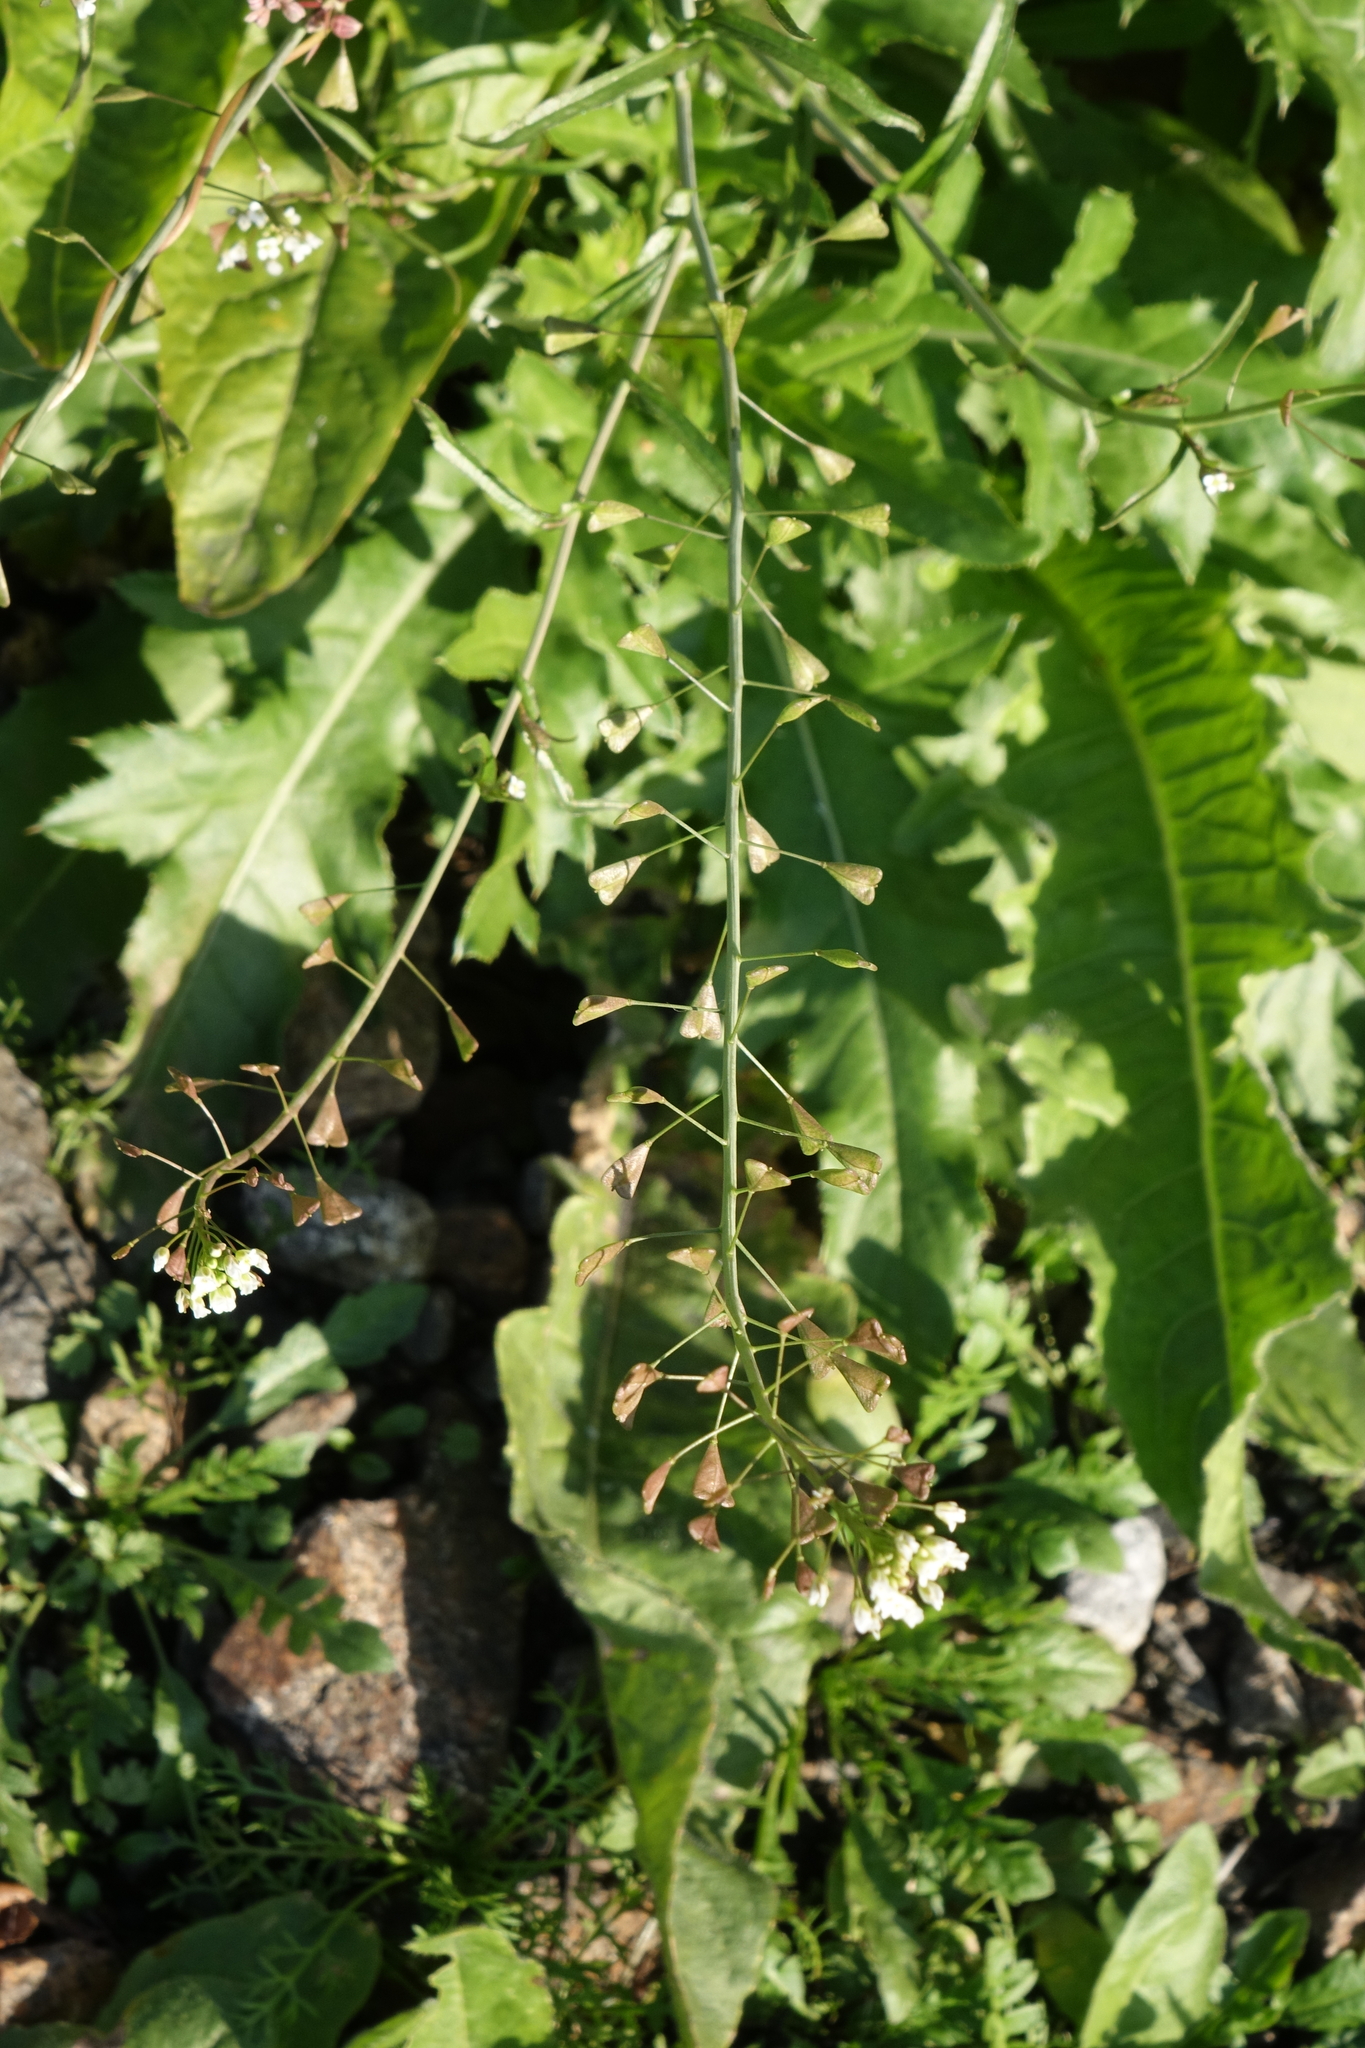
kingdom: Plantae
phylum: Tracheophyta
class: Magnoliopsida
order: Brassicales
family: Brassicaceae
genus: Capsella
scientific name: Capsella bursa-pastoris
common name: Shepherd's purse
